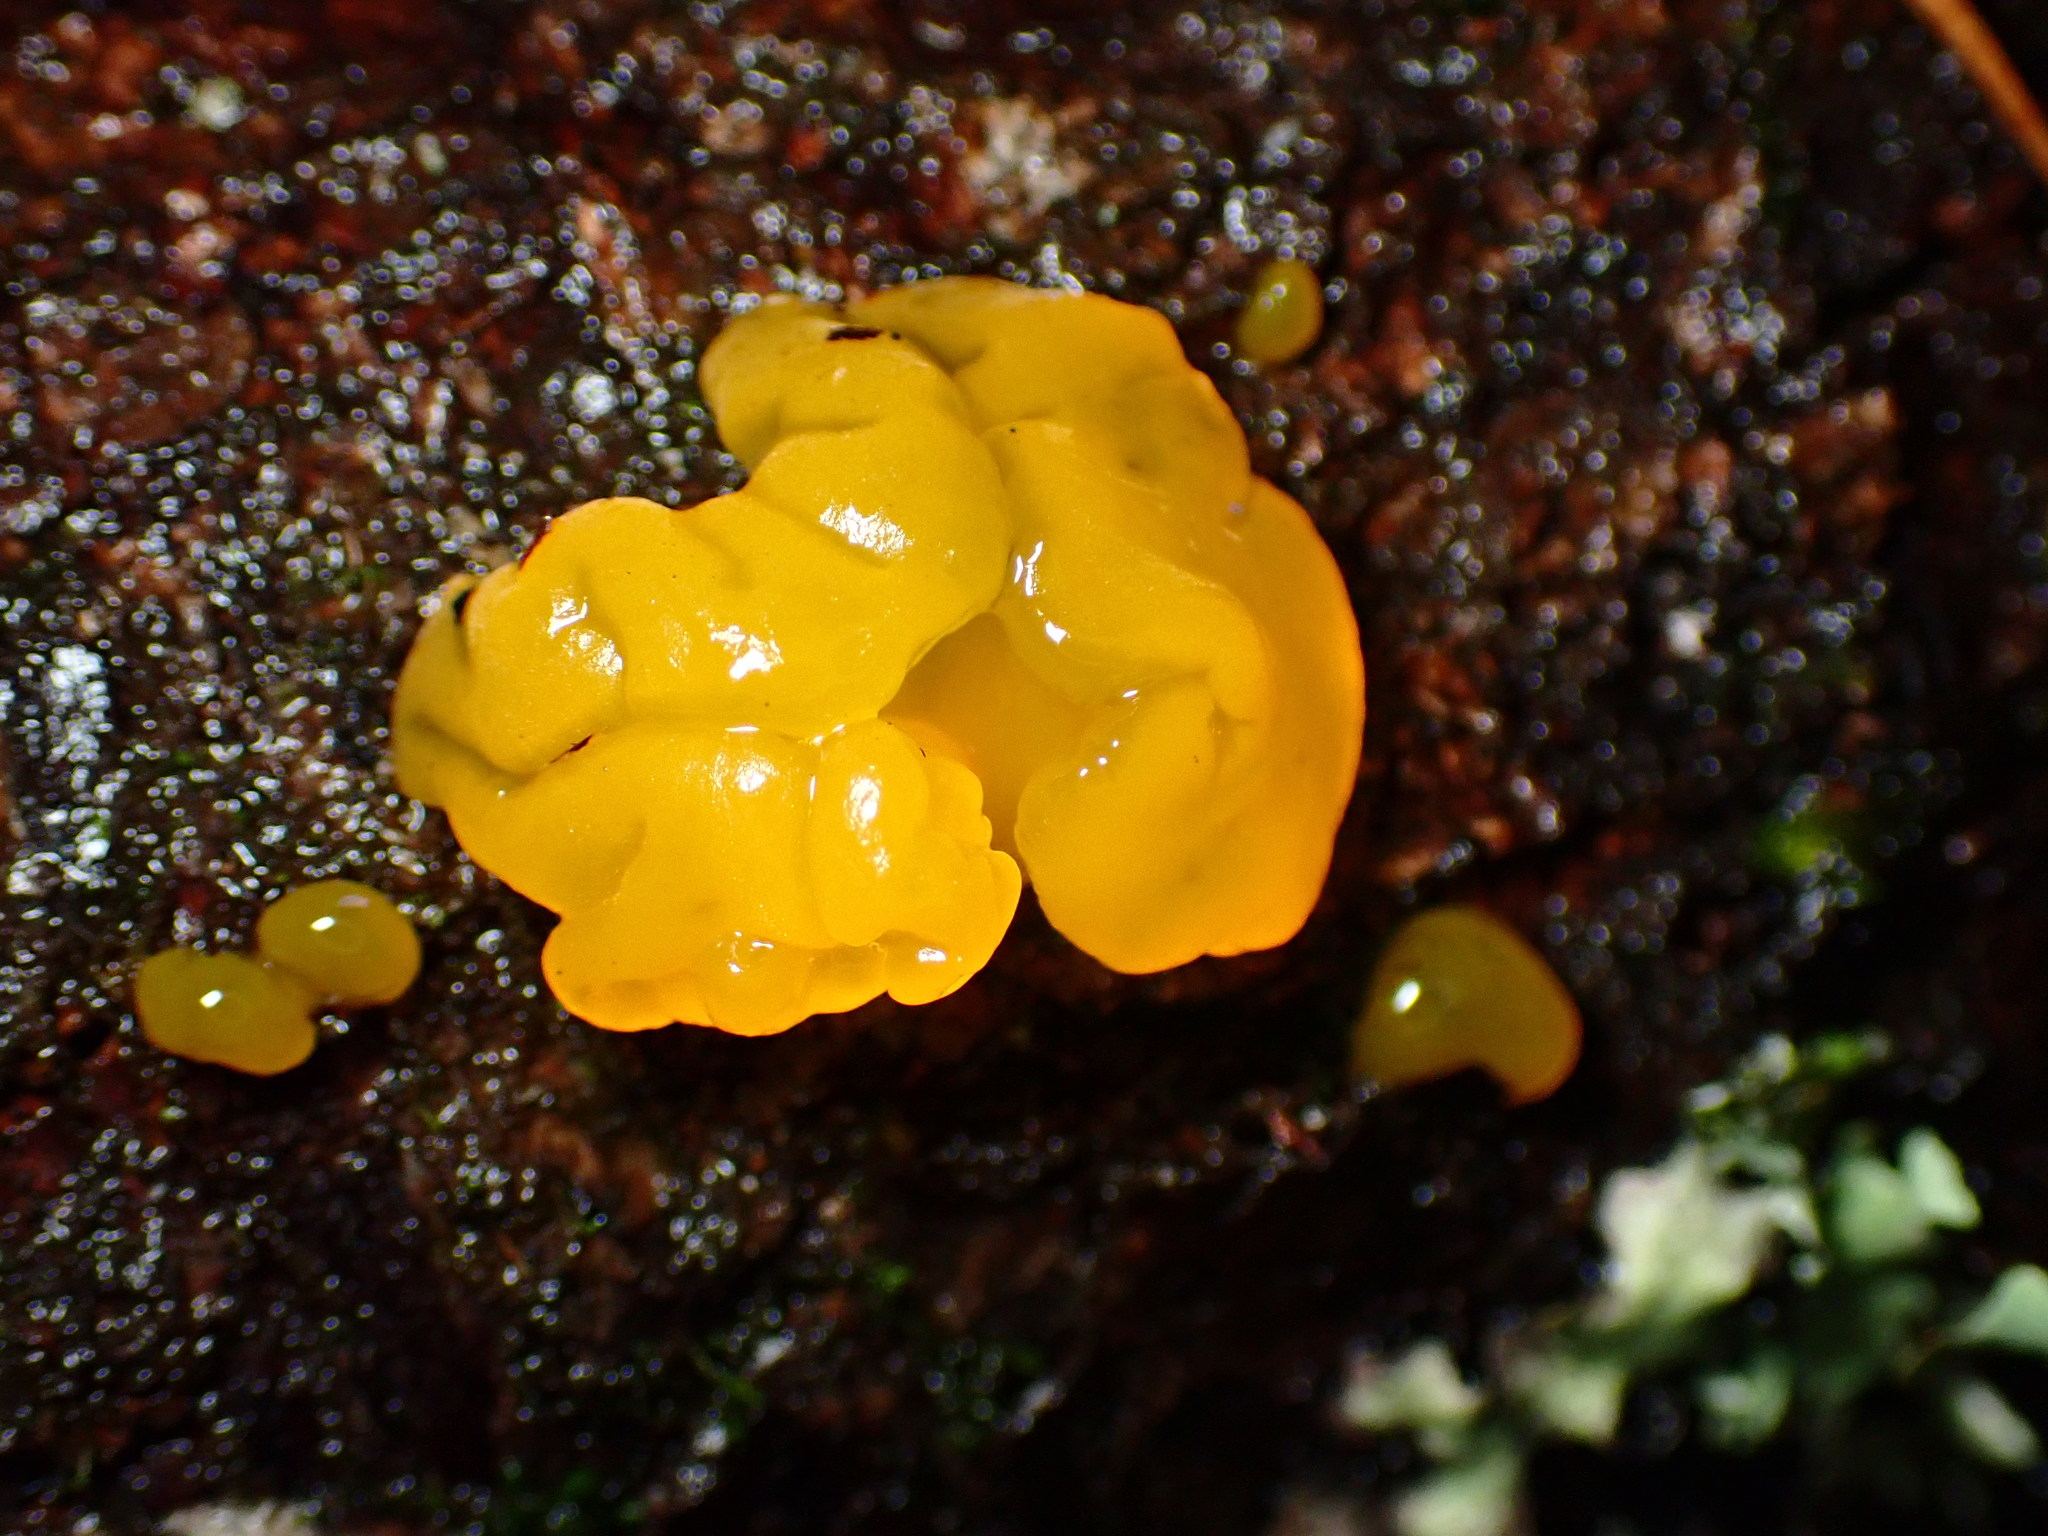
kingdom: Fungi
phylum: Basidiomycota
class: Dacrymycetes
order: Dacrymycetales
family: Dacrymycetaceae
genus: Dacrymyces
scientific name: Dacrymyces chrysospermus
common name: Orange jelly spot
